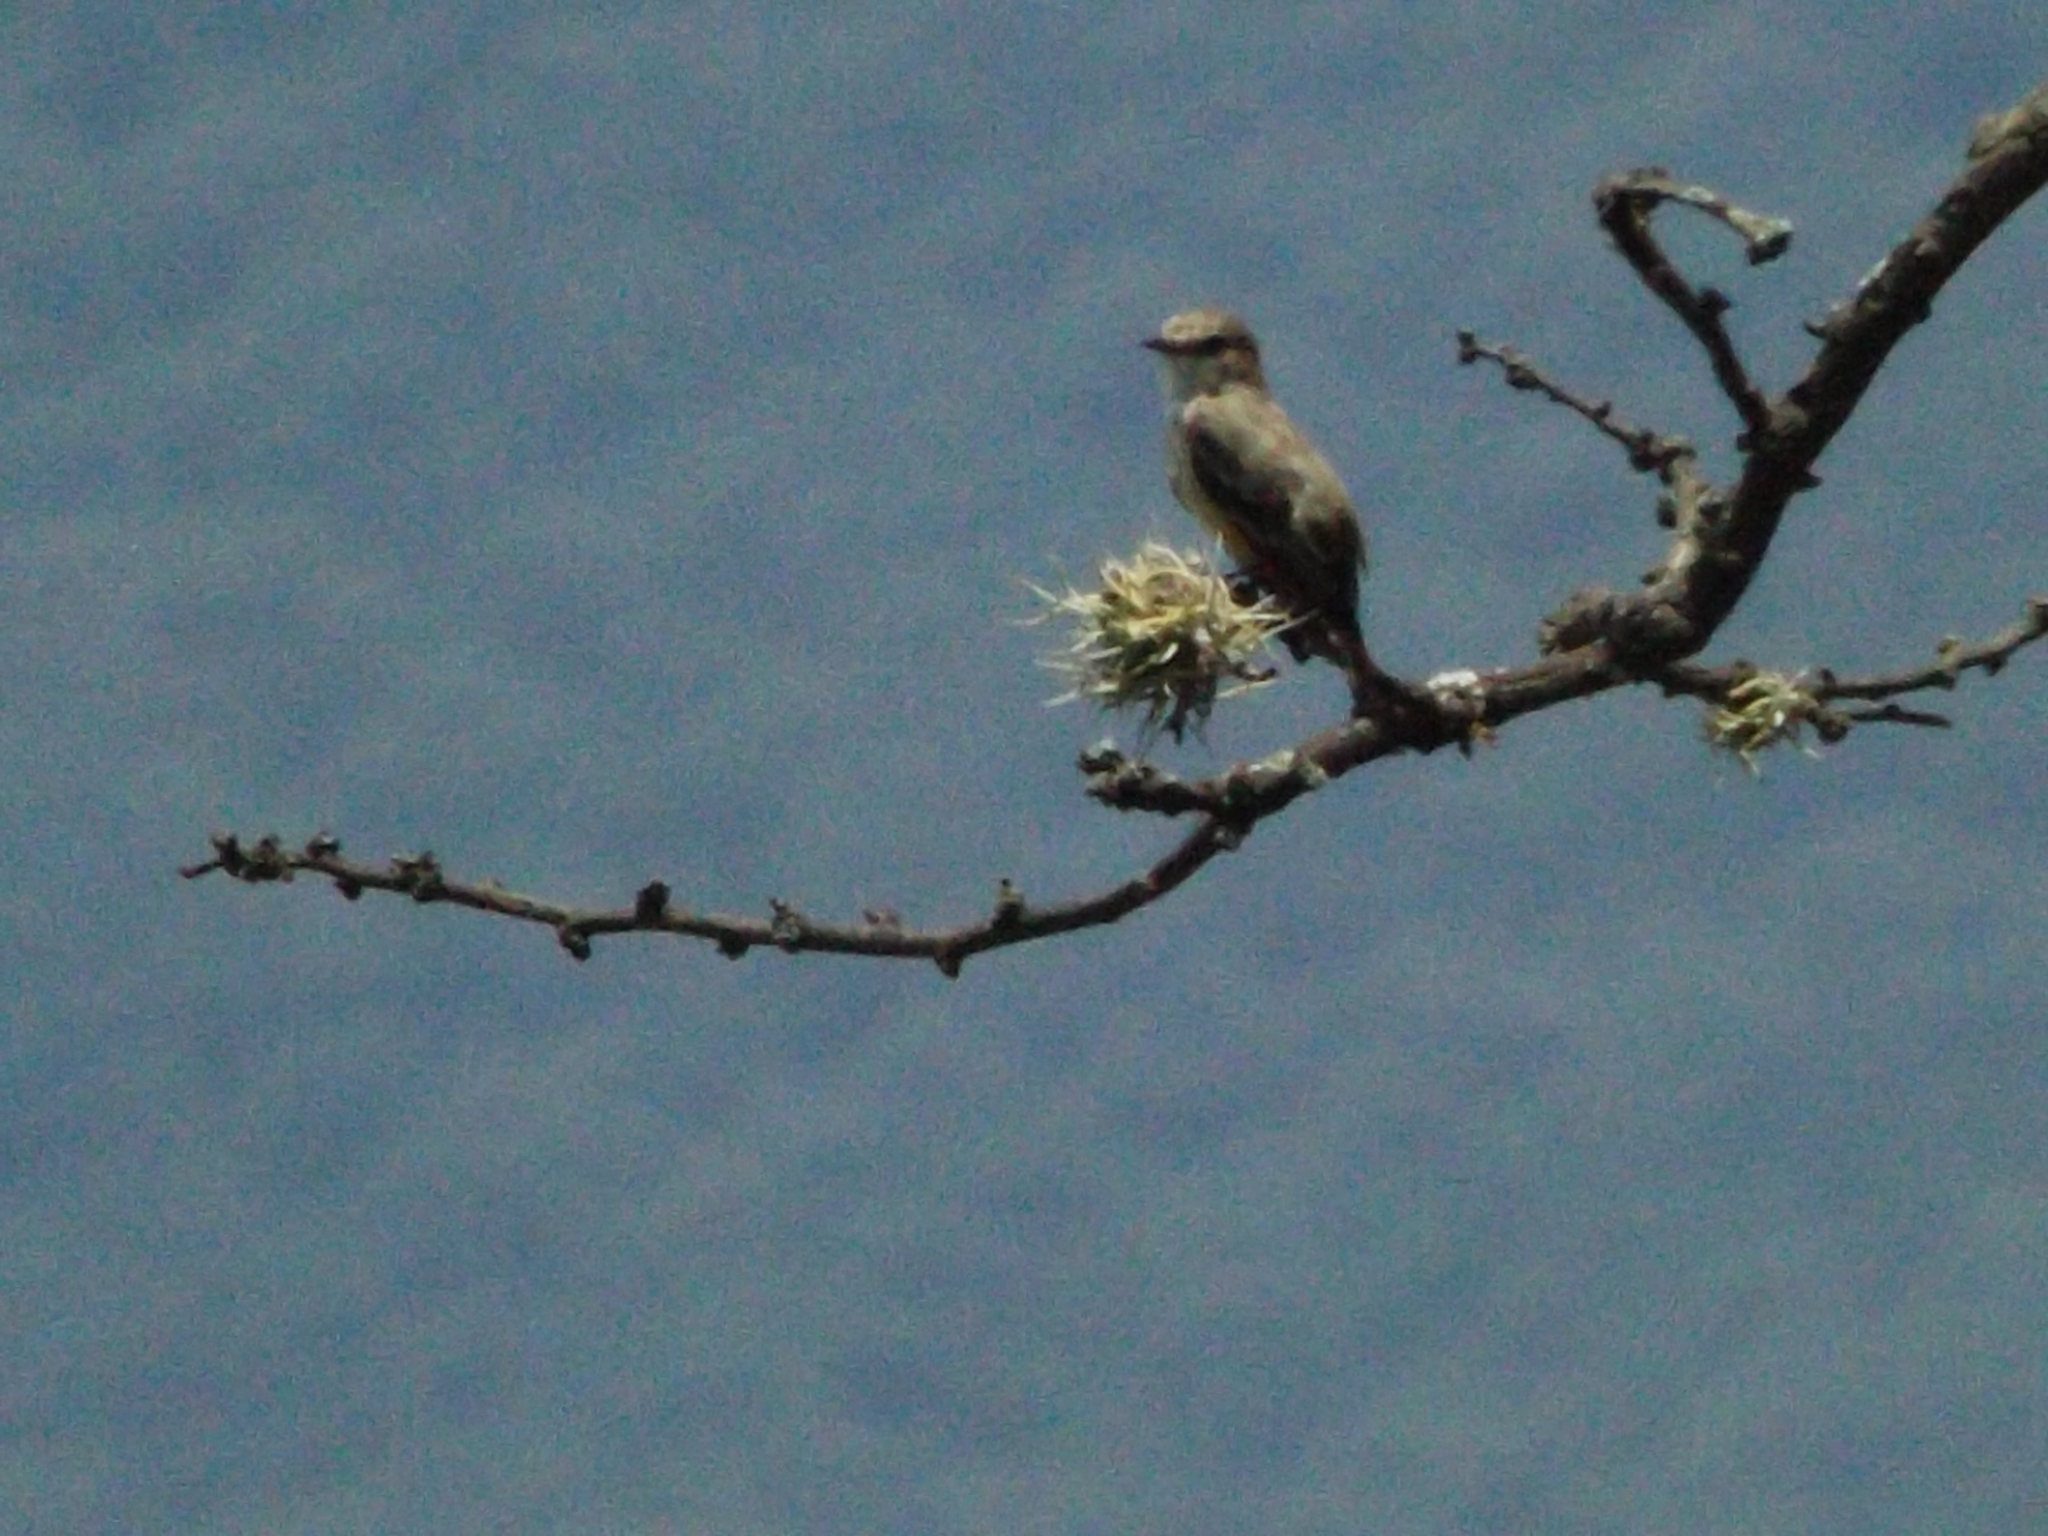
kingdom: Animalia
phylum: Chordata
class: Aves
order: Passeriformes
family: Tyrannidae
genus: Pyrocephalus
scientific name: Pyrocephalus rubinus
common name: Vermilion flycatcher
